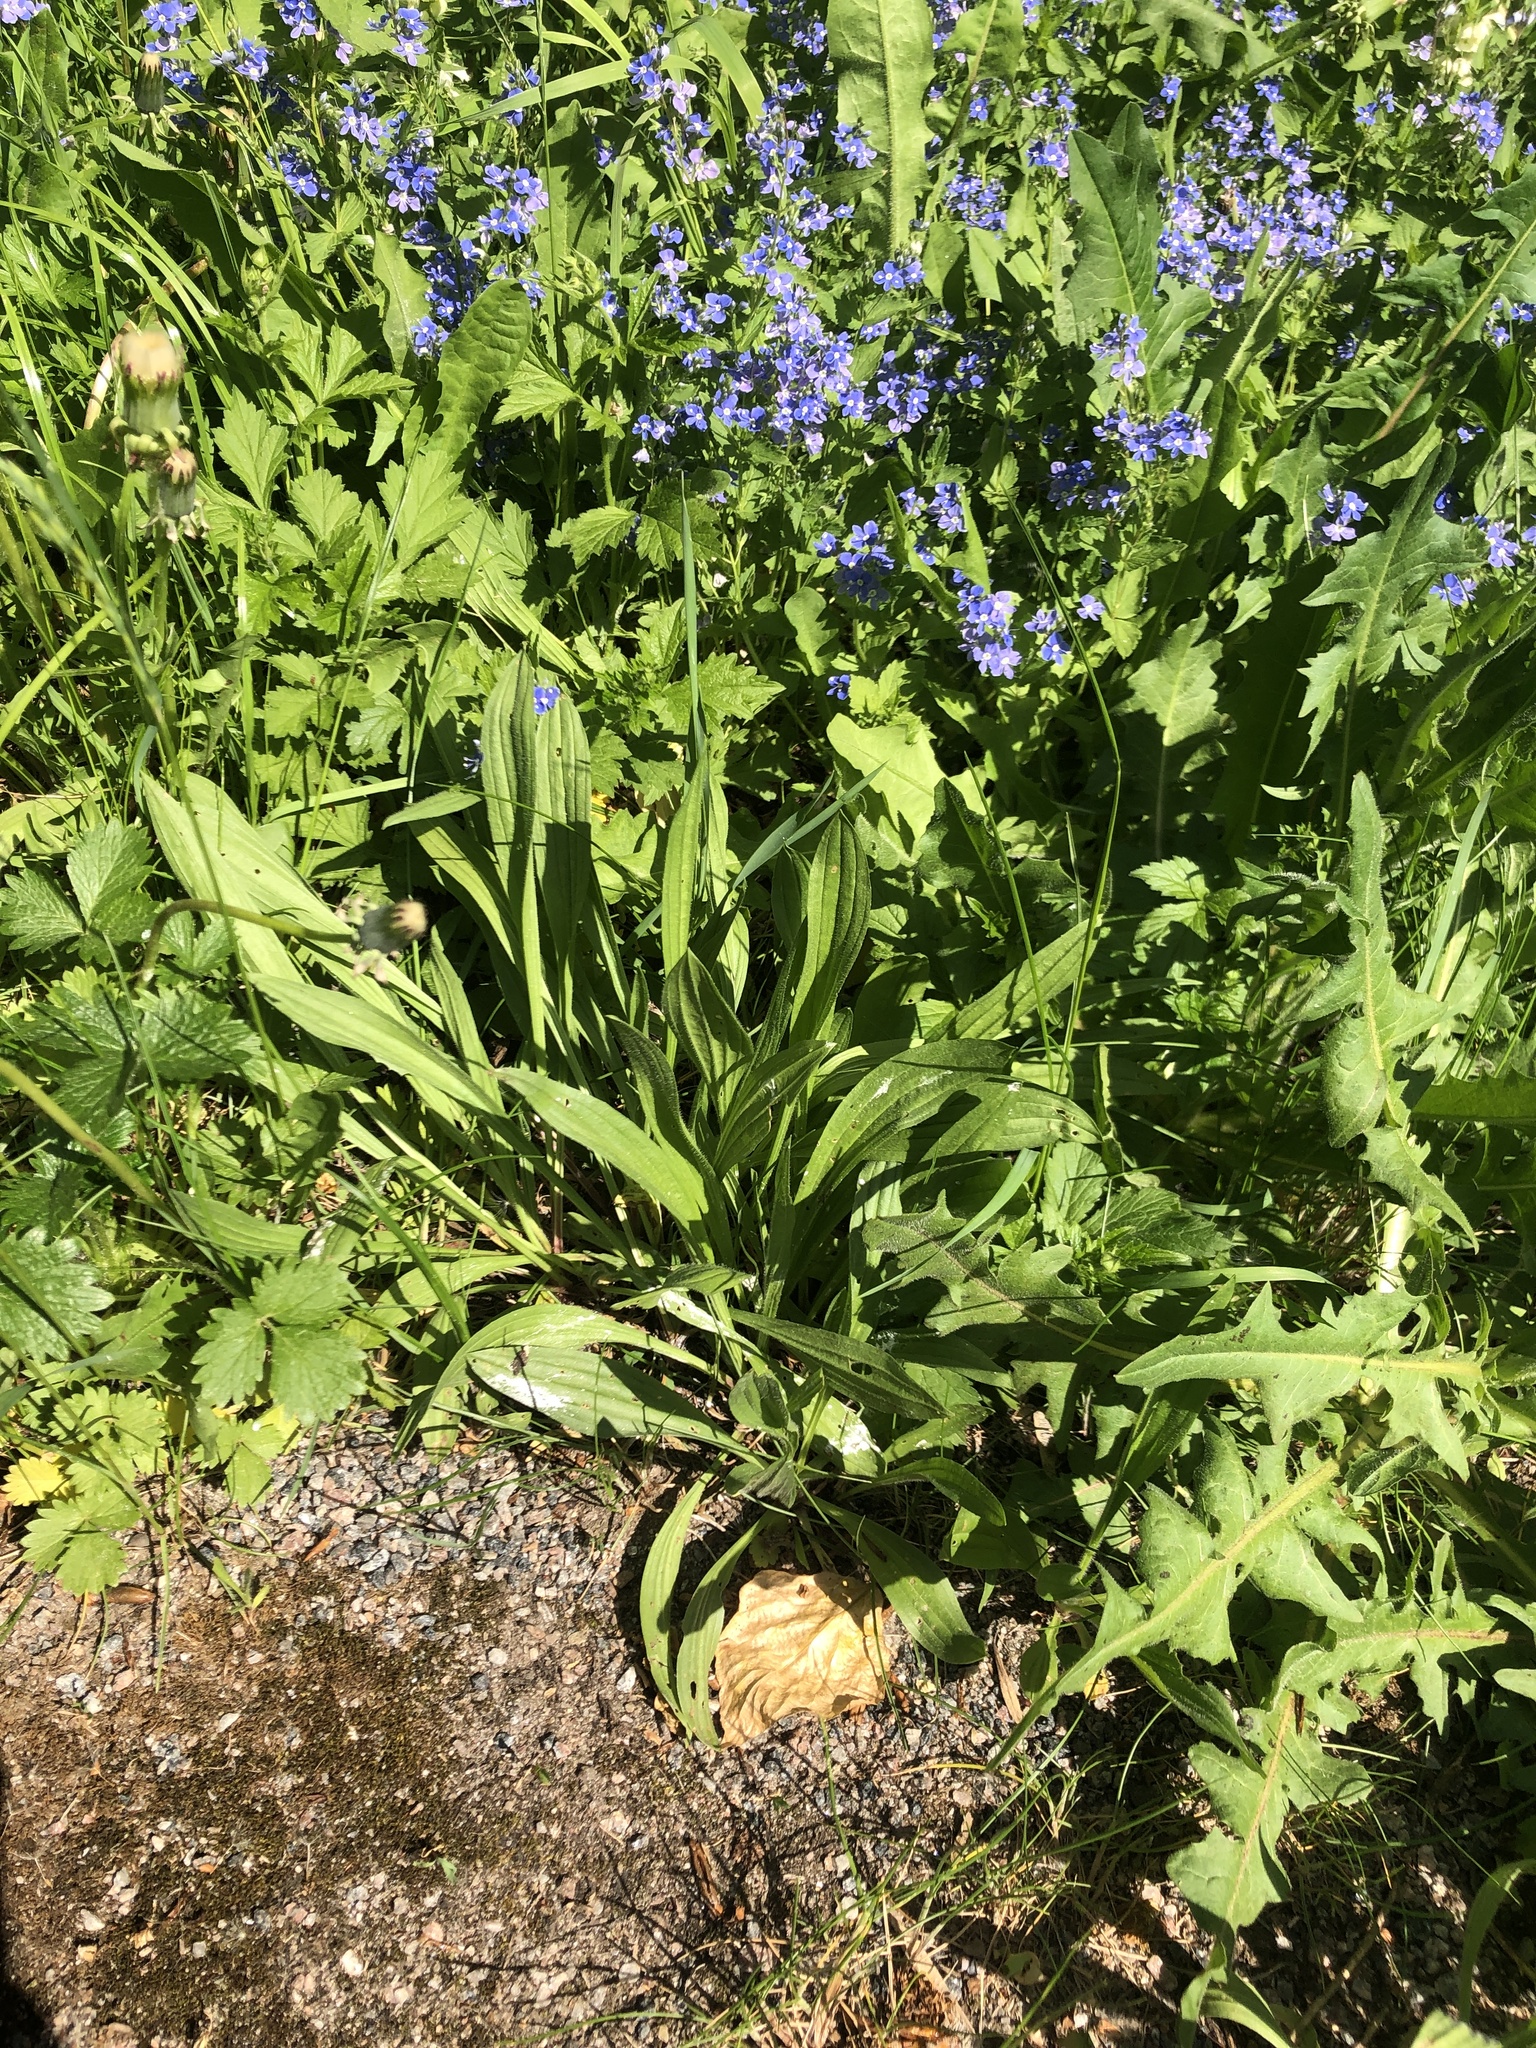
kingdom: Plantae
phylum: Tracheophyta
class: Magnoliopsida
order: Lamiales
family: Plantaginaceae
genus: Plantago
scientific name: Plantago lanceolata
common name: Ribwort plantain
